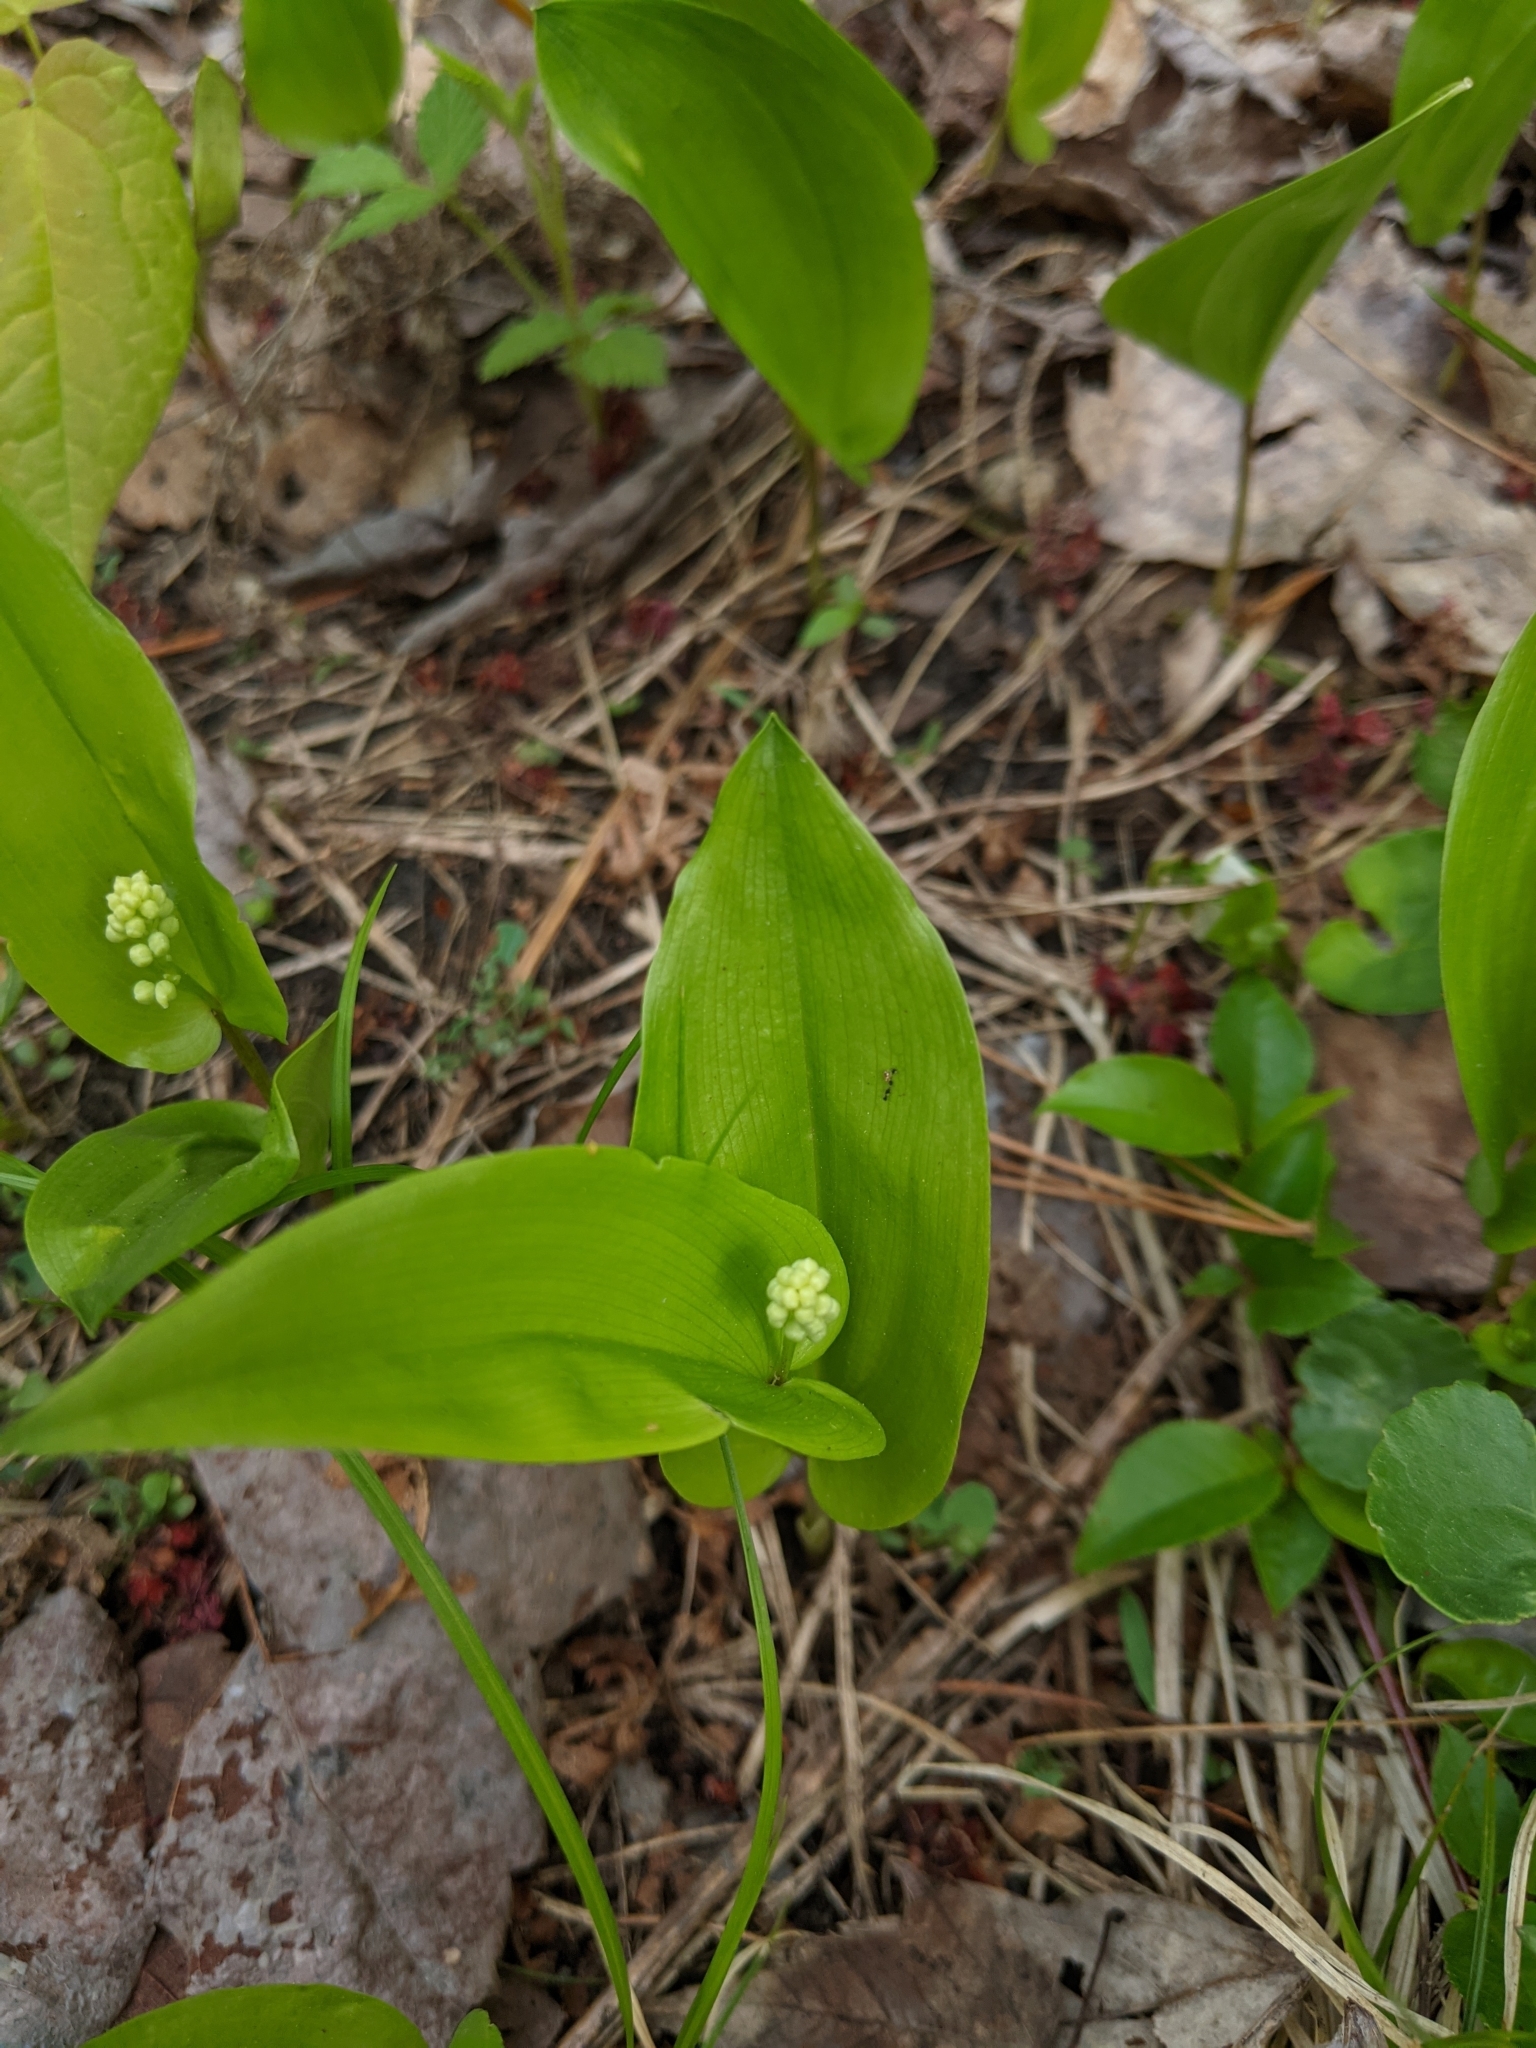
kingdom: Plantae
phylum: Tracheophyta
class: Liliopsida
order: Asparagales
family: Asparagaceae
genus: Maianthemum
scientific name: Maianthemum canadense
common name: False lily-of-the-valley
